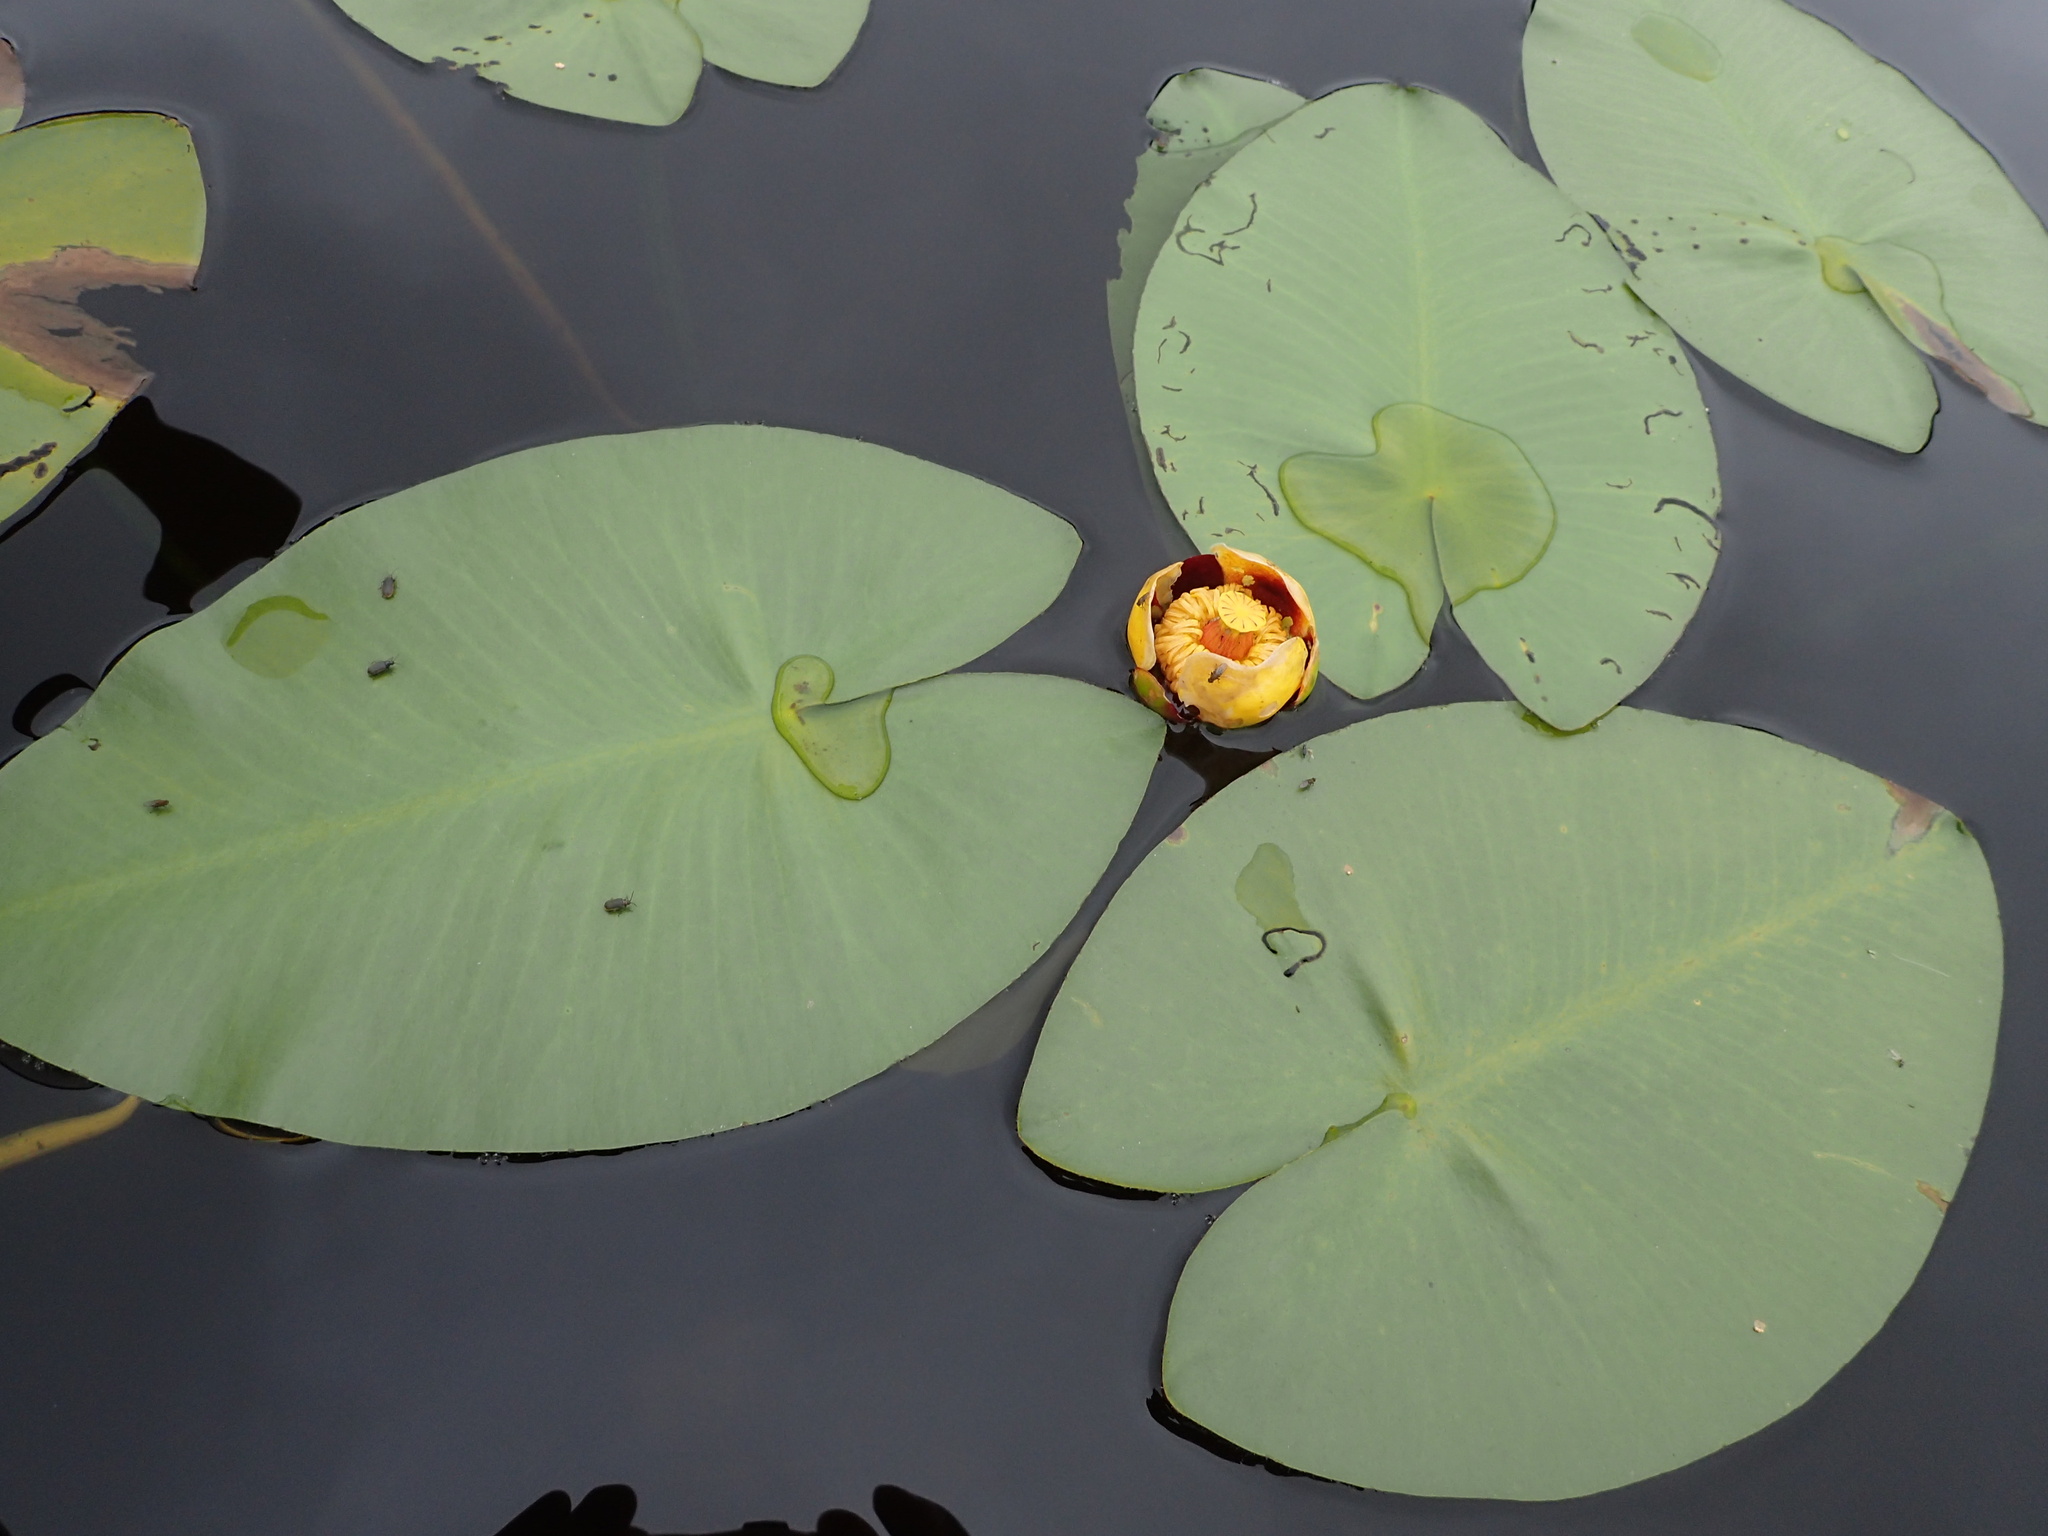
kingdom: Plantae
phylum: Tracheophyta
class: Magnoliopsida
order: Nymphaeales
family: Nymphaeaceae
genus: Nuphar
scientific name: Nuphar variegata
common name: Beaver-root
